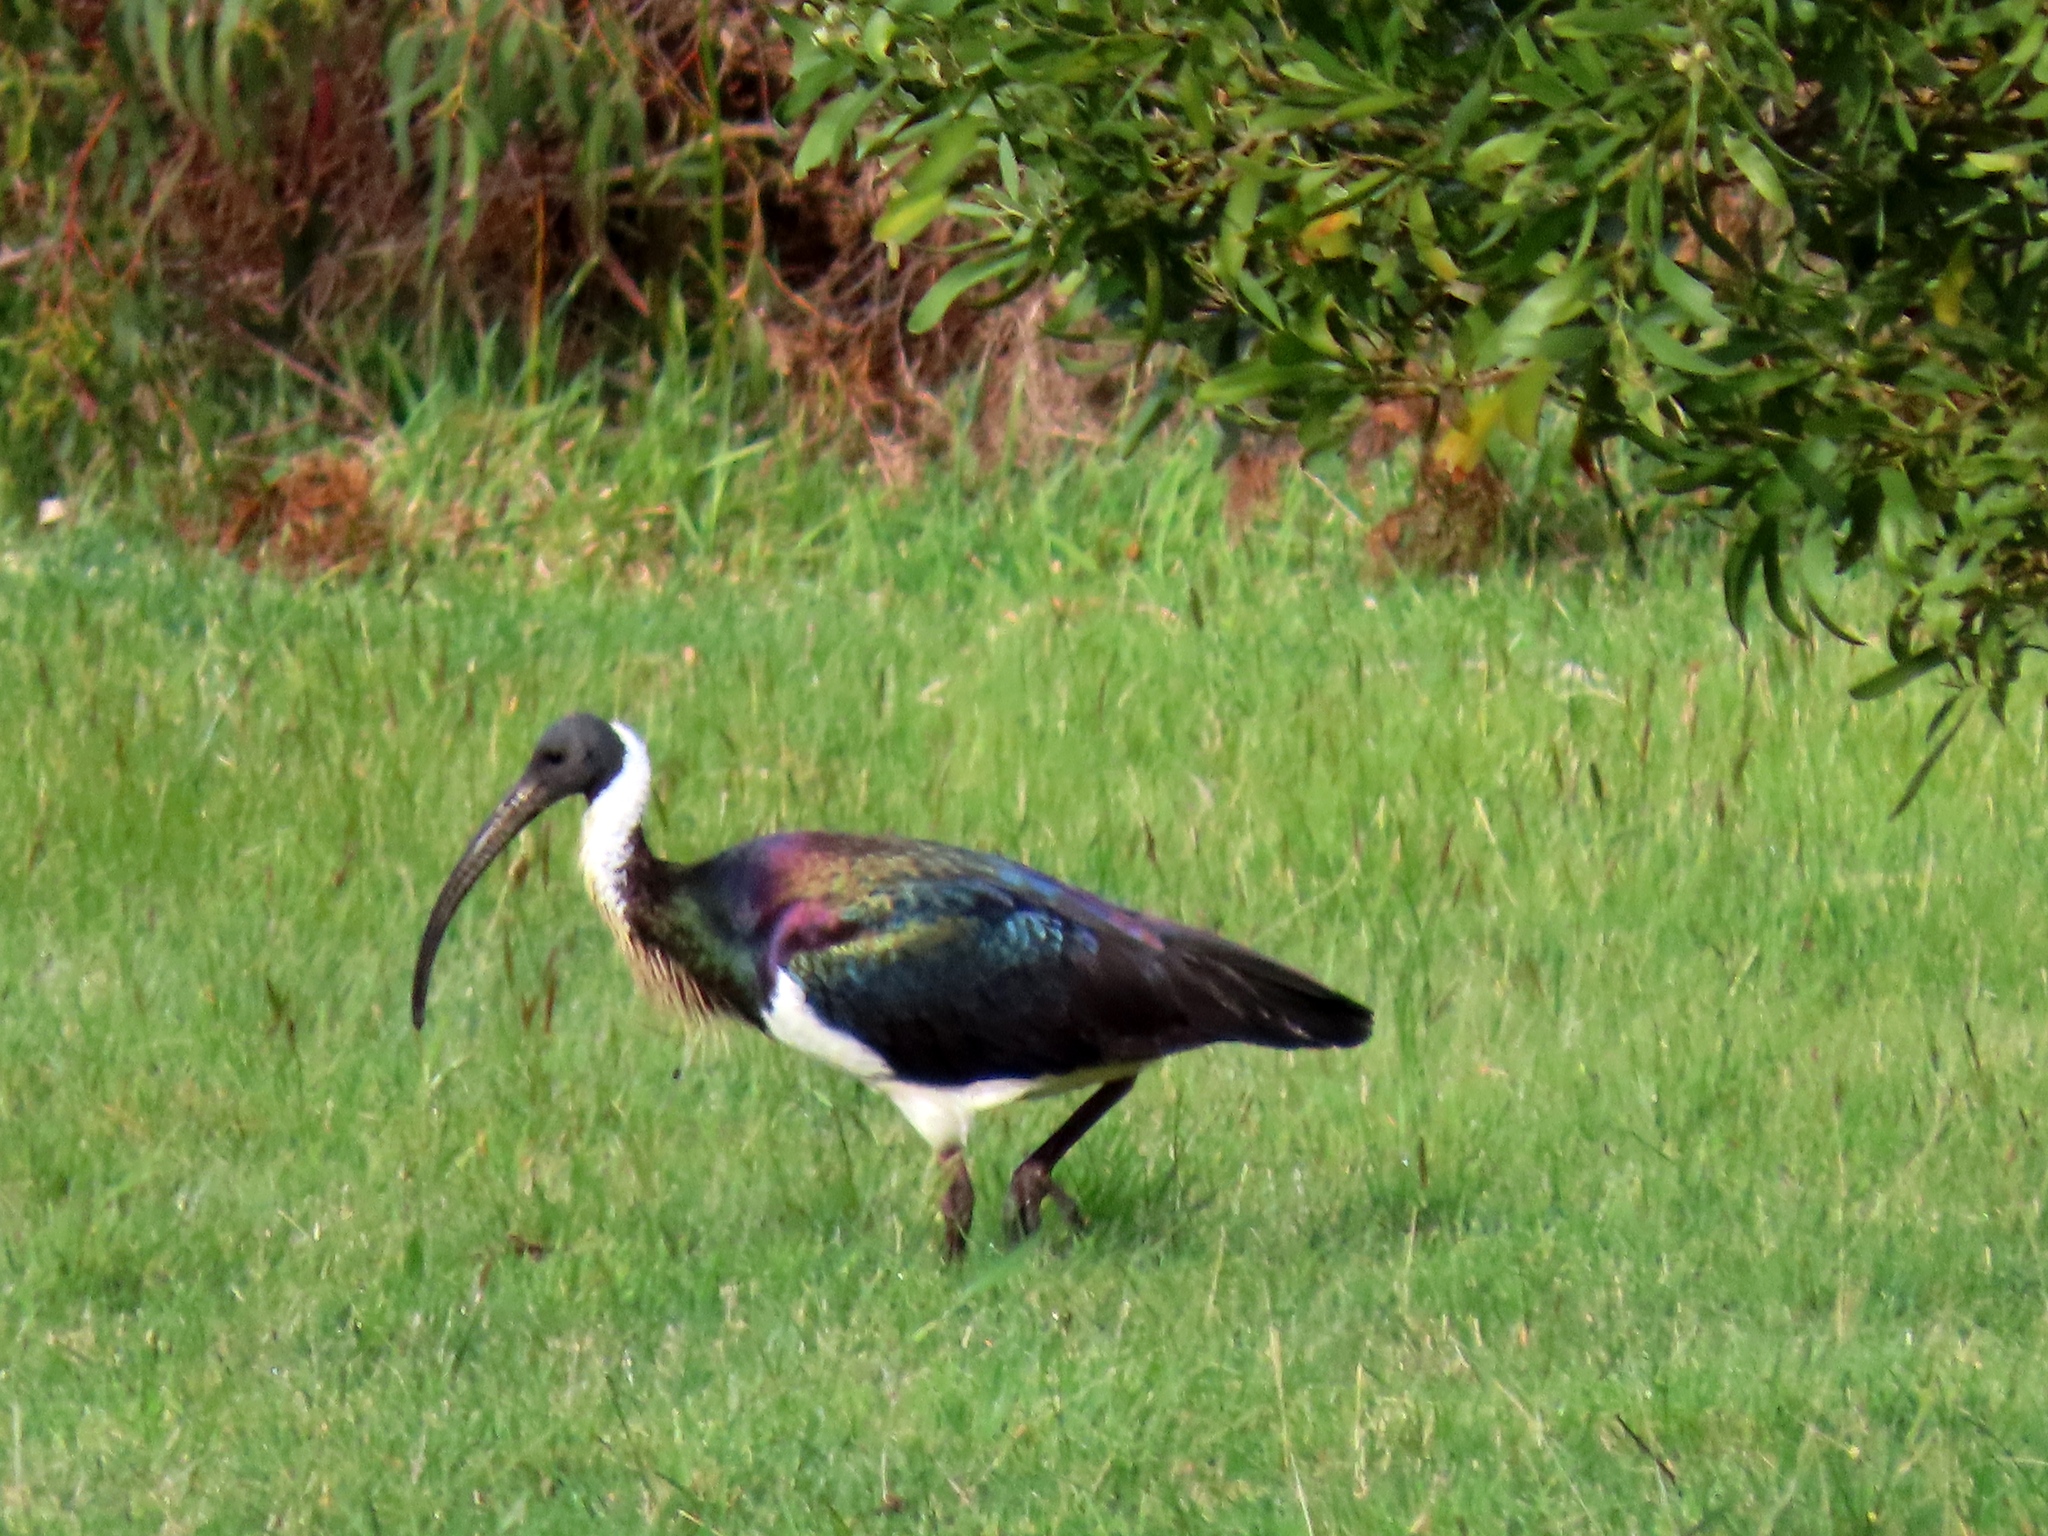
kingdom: Animalia
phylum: Chordata
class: Aves
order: Pelecaniformes
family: Threskiornithidae
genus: Threskiornis
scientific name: Threskiornis spinicollis
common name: Straw-necked ibis
